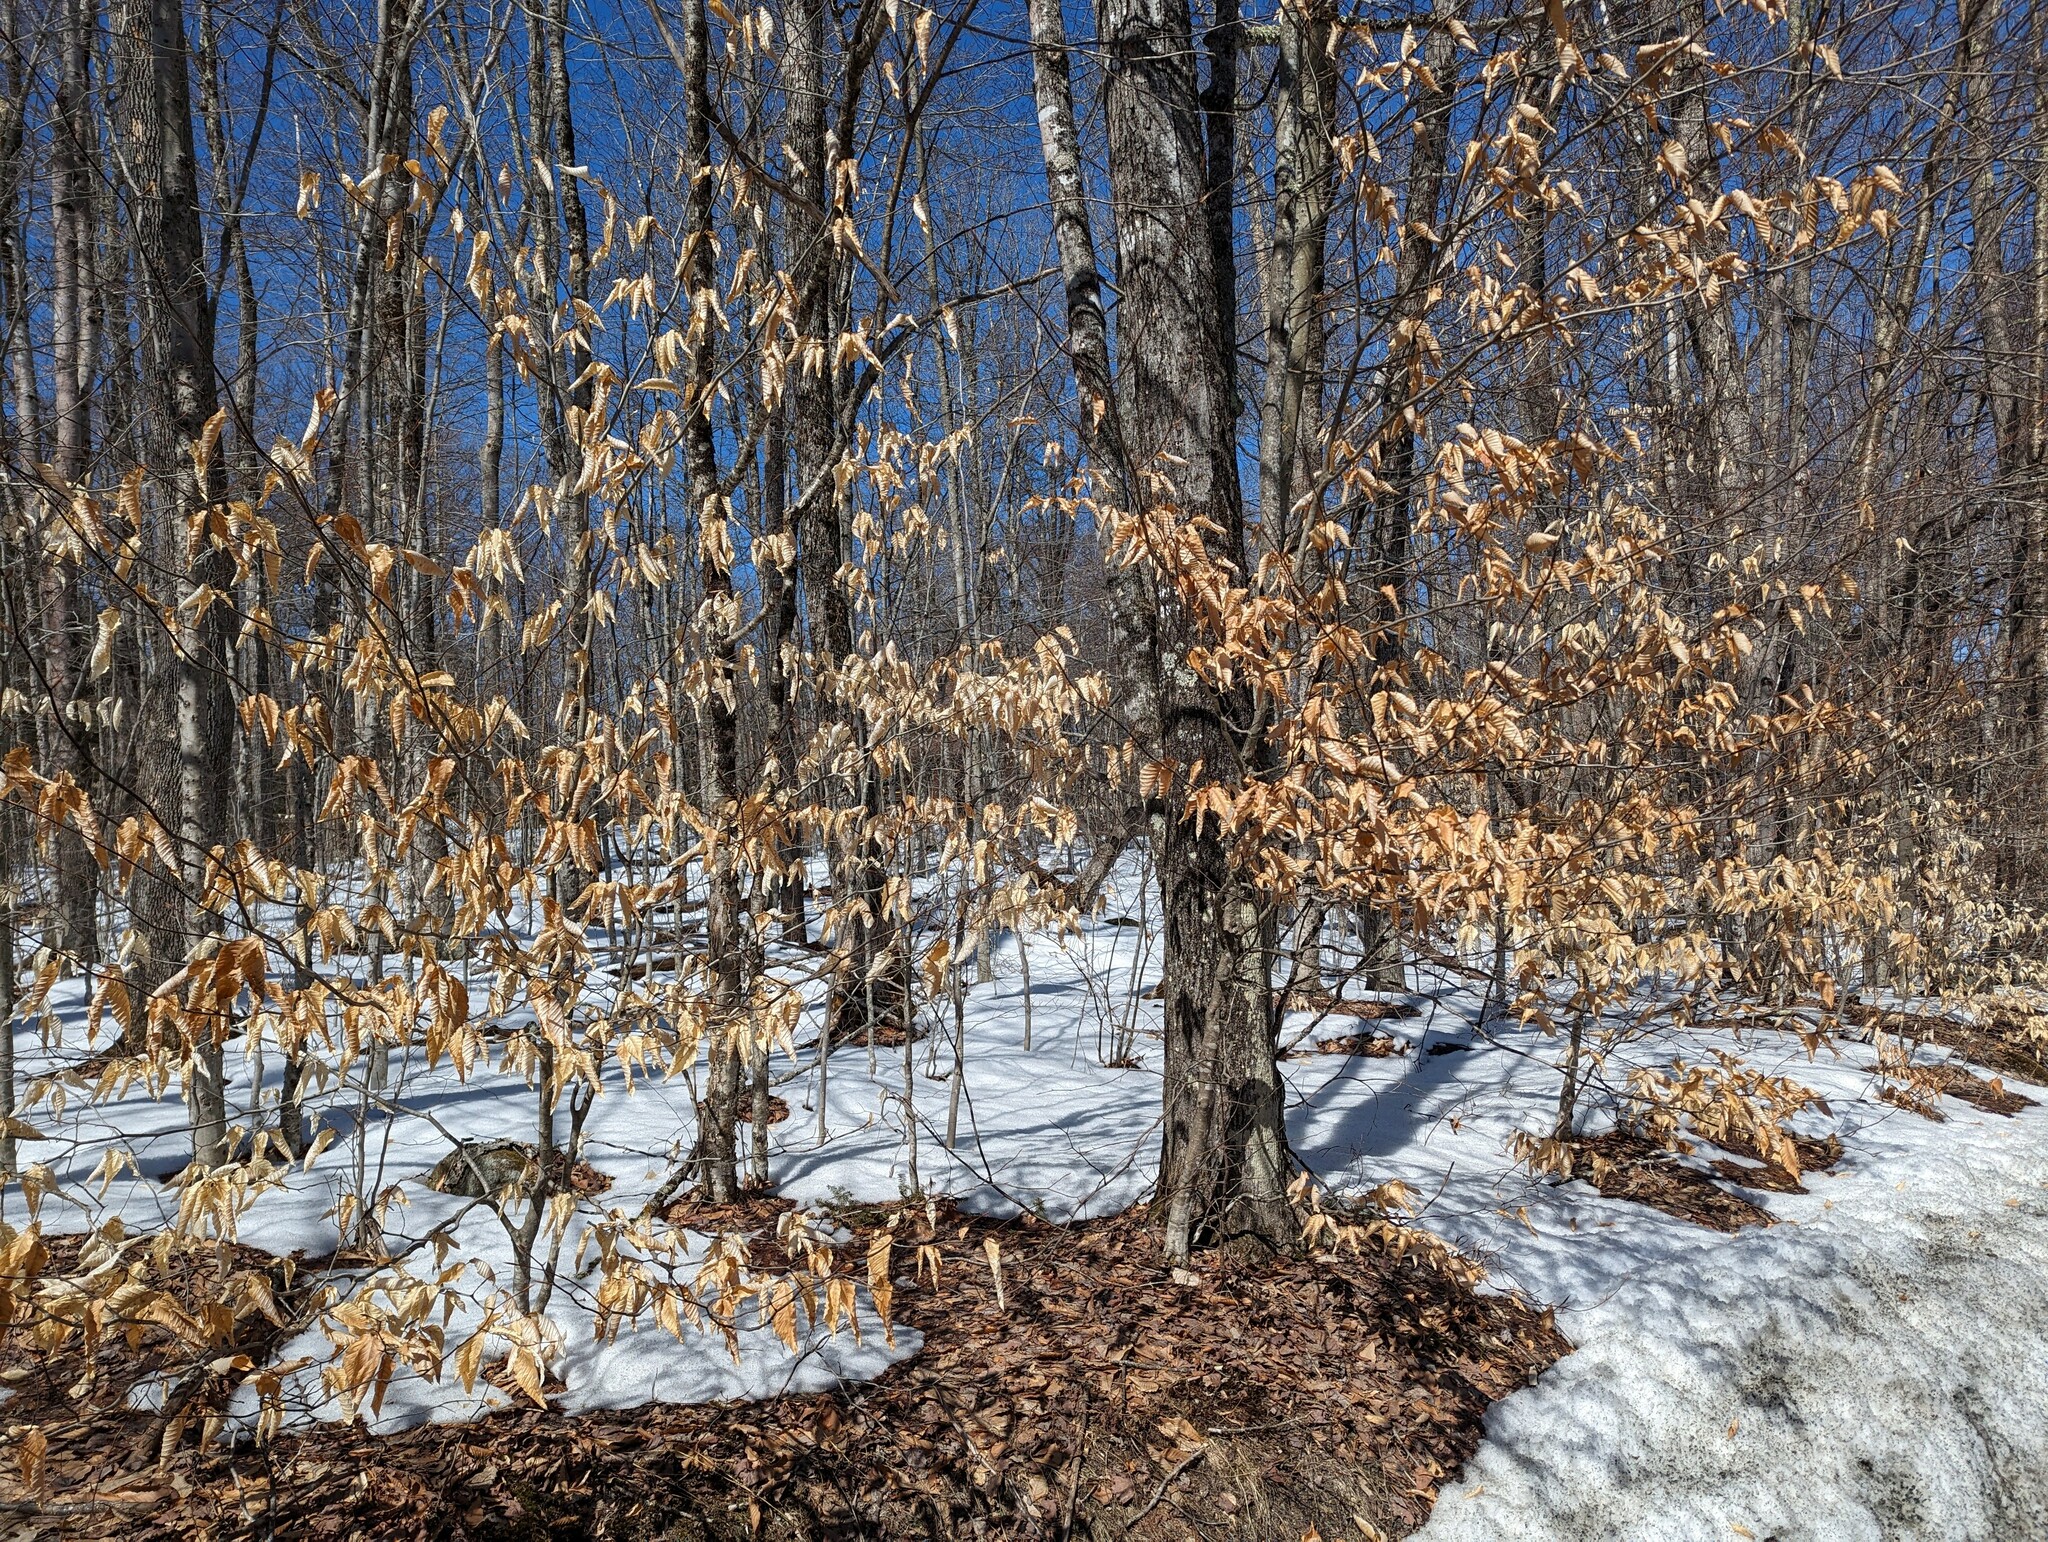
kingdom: Plantae
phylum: Tracheophyta
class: Magnoliopsida
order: Fagales
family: Fagaceae
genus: Fagus
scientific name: Fagus grandifolia
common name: American beech
